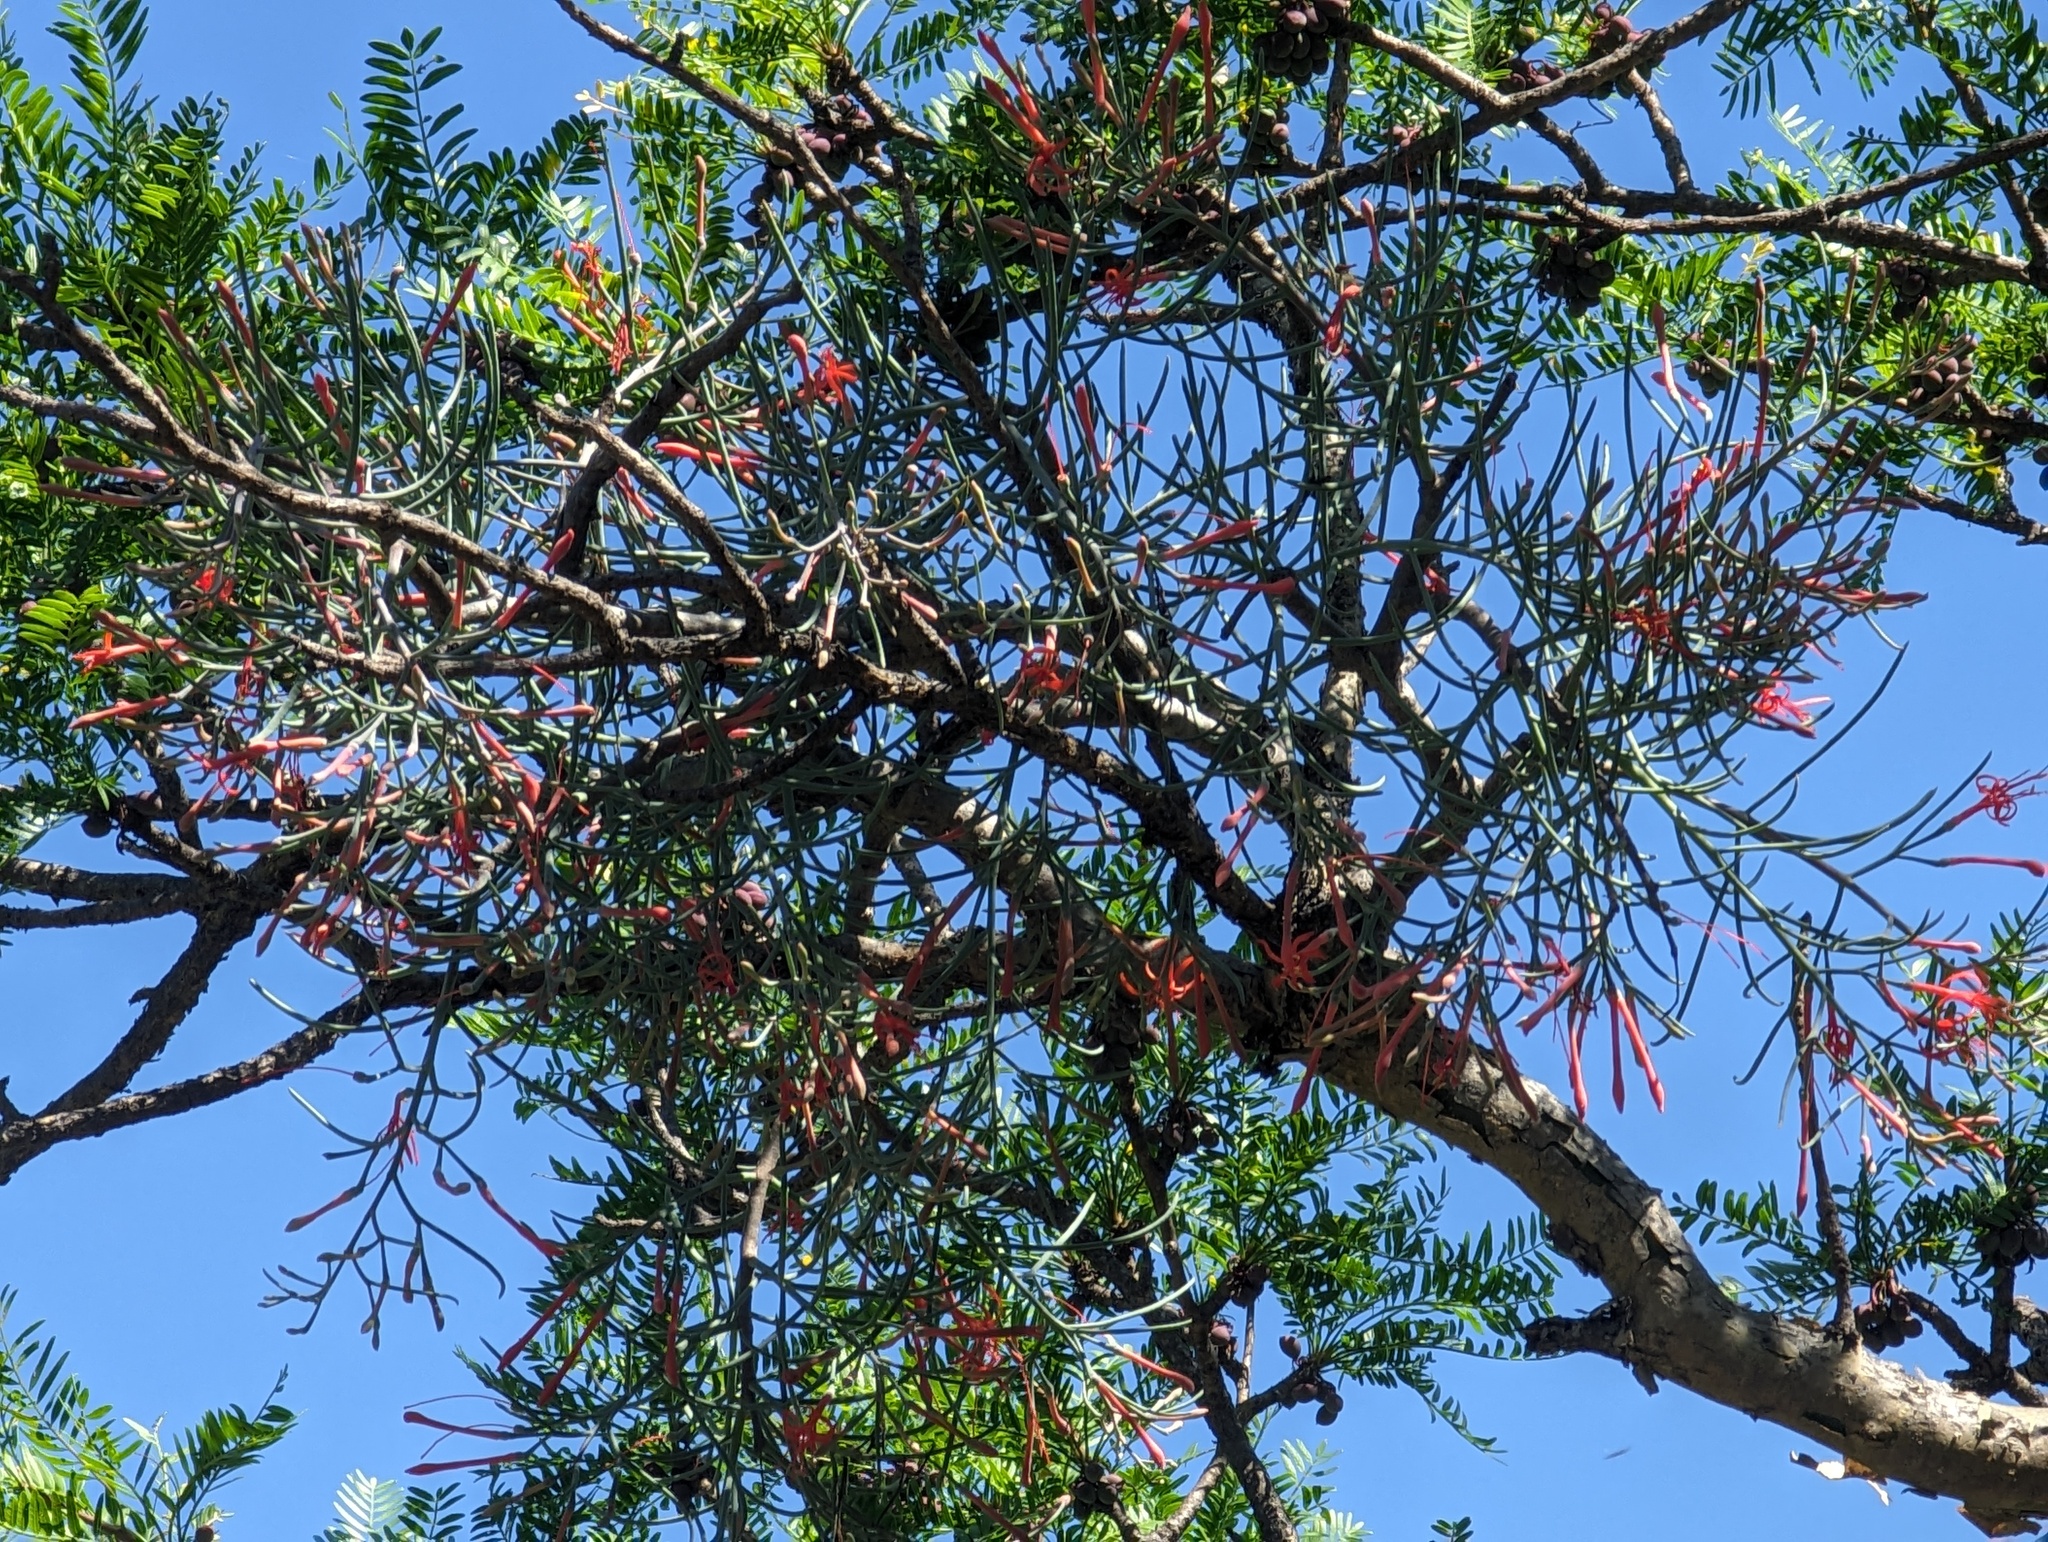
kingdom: Plantae
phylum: Tracheophyta
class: Magnoliopsida
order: Santalales
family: Loranthaceae
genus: Psittacanthus
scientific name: Psittacanthus sonorae
